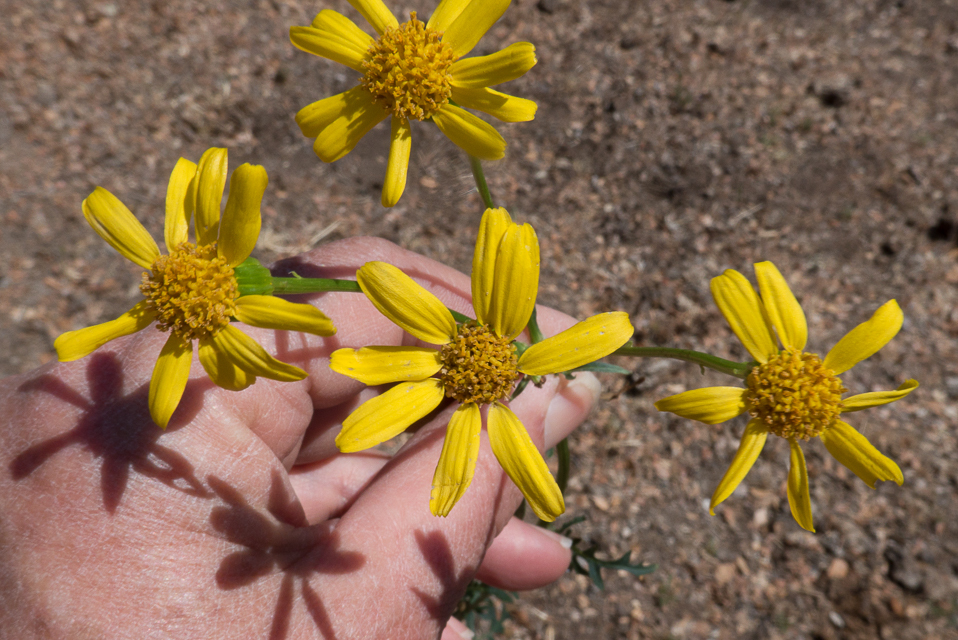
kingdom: Plantae
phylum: Tracheophyta
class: Magnoliopsida
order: Asterales
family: Asteraceae
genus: Packera
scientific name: Packera breweri
